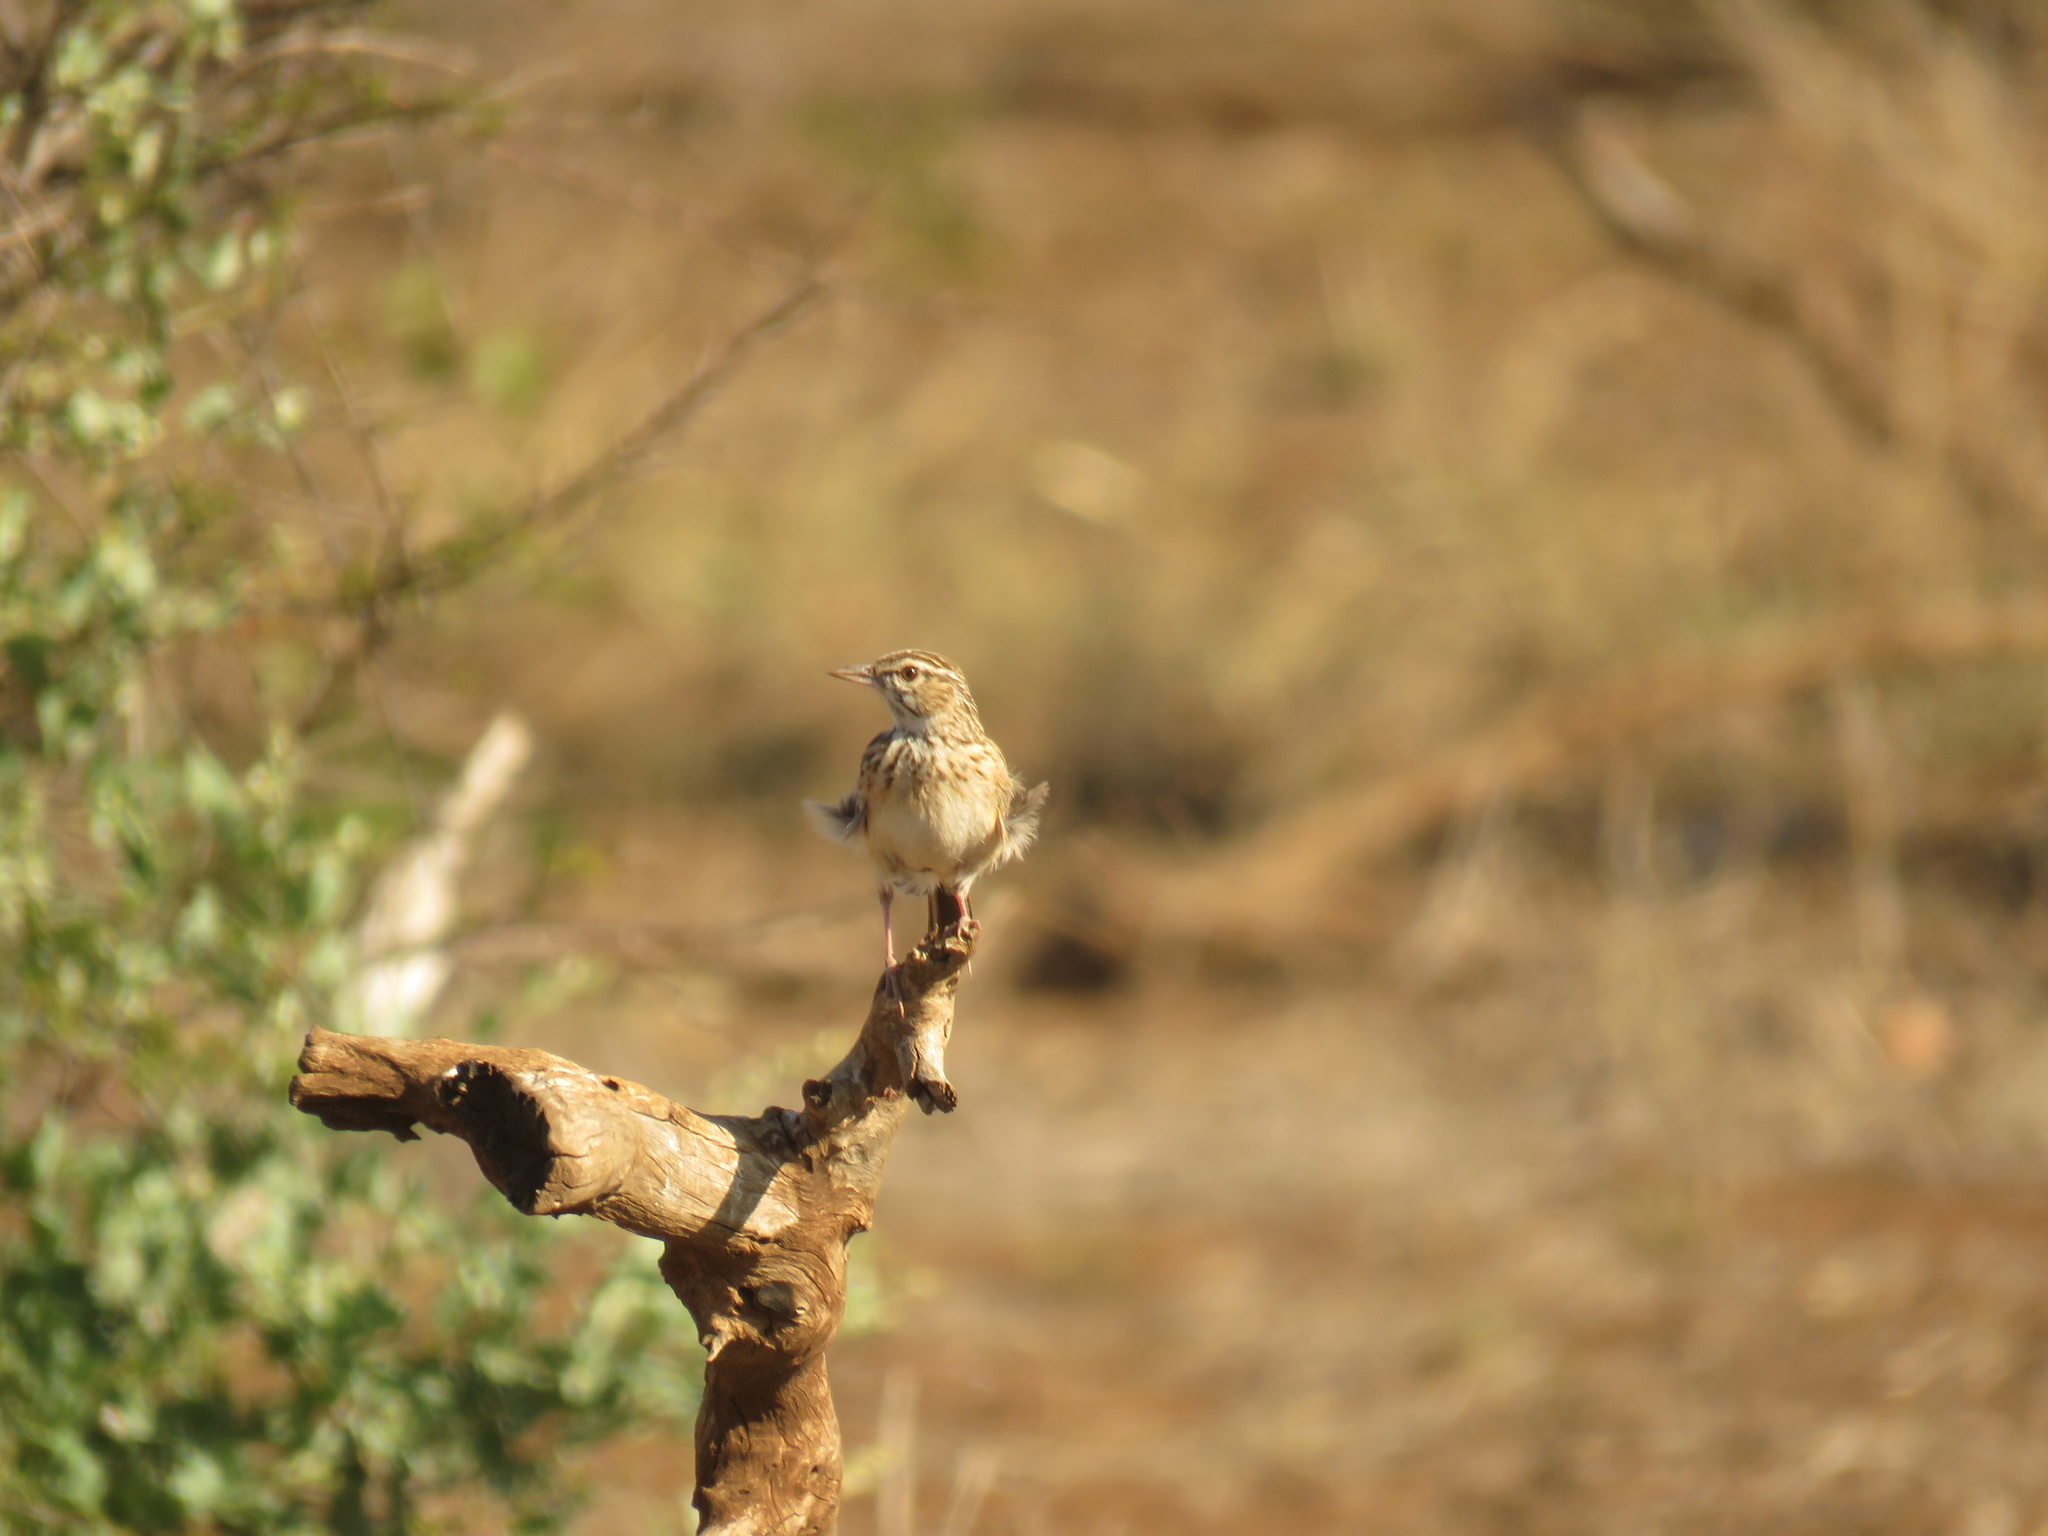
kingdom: Animalia
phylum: Chordata
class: Aves
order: Passeriformes
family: Alaudidae
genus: Calendulauda
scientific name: Calendulauda sabota
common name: Sabota lark
